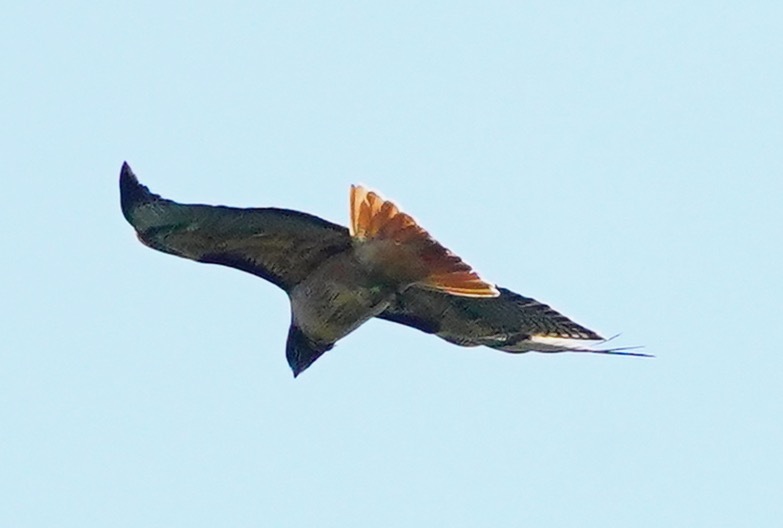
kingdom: Animalia
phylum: Chordata
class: Aves
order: Accipitriformes
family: Accipitridae
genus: Buteo
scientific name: Buteo jamaicensis
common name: Red-tailed hawk
